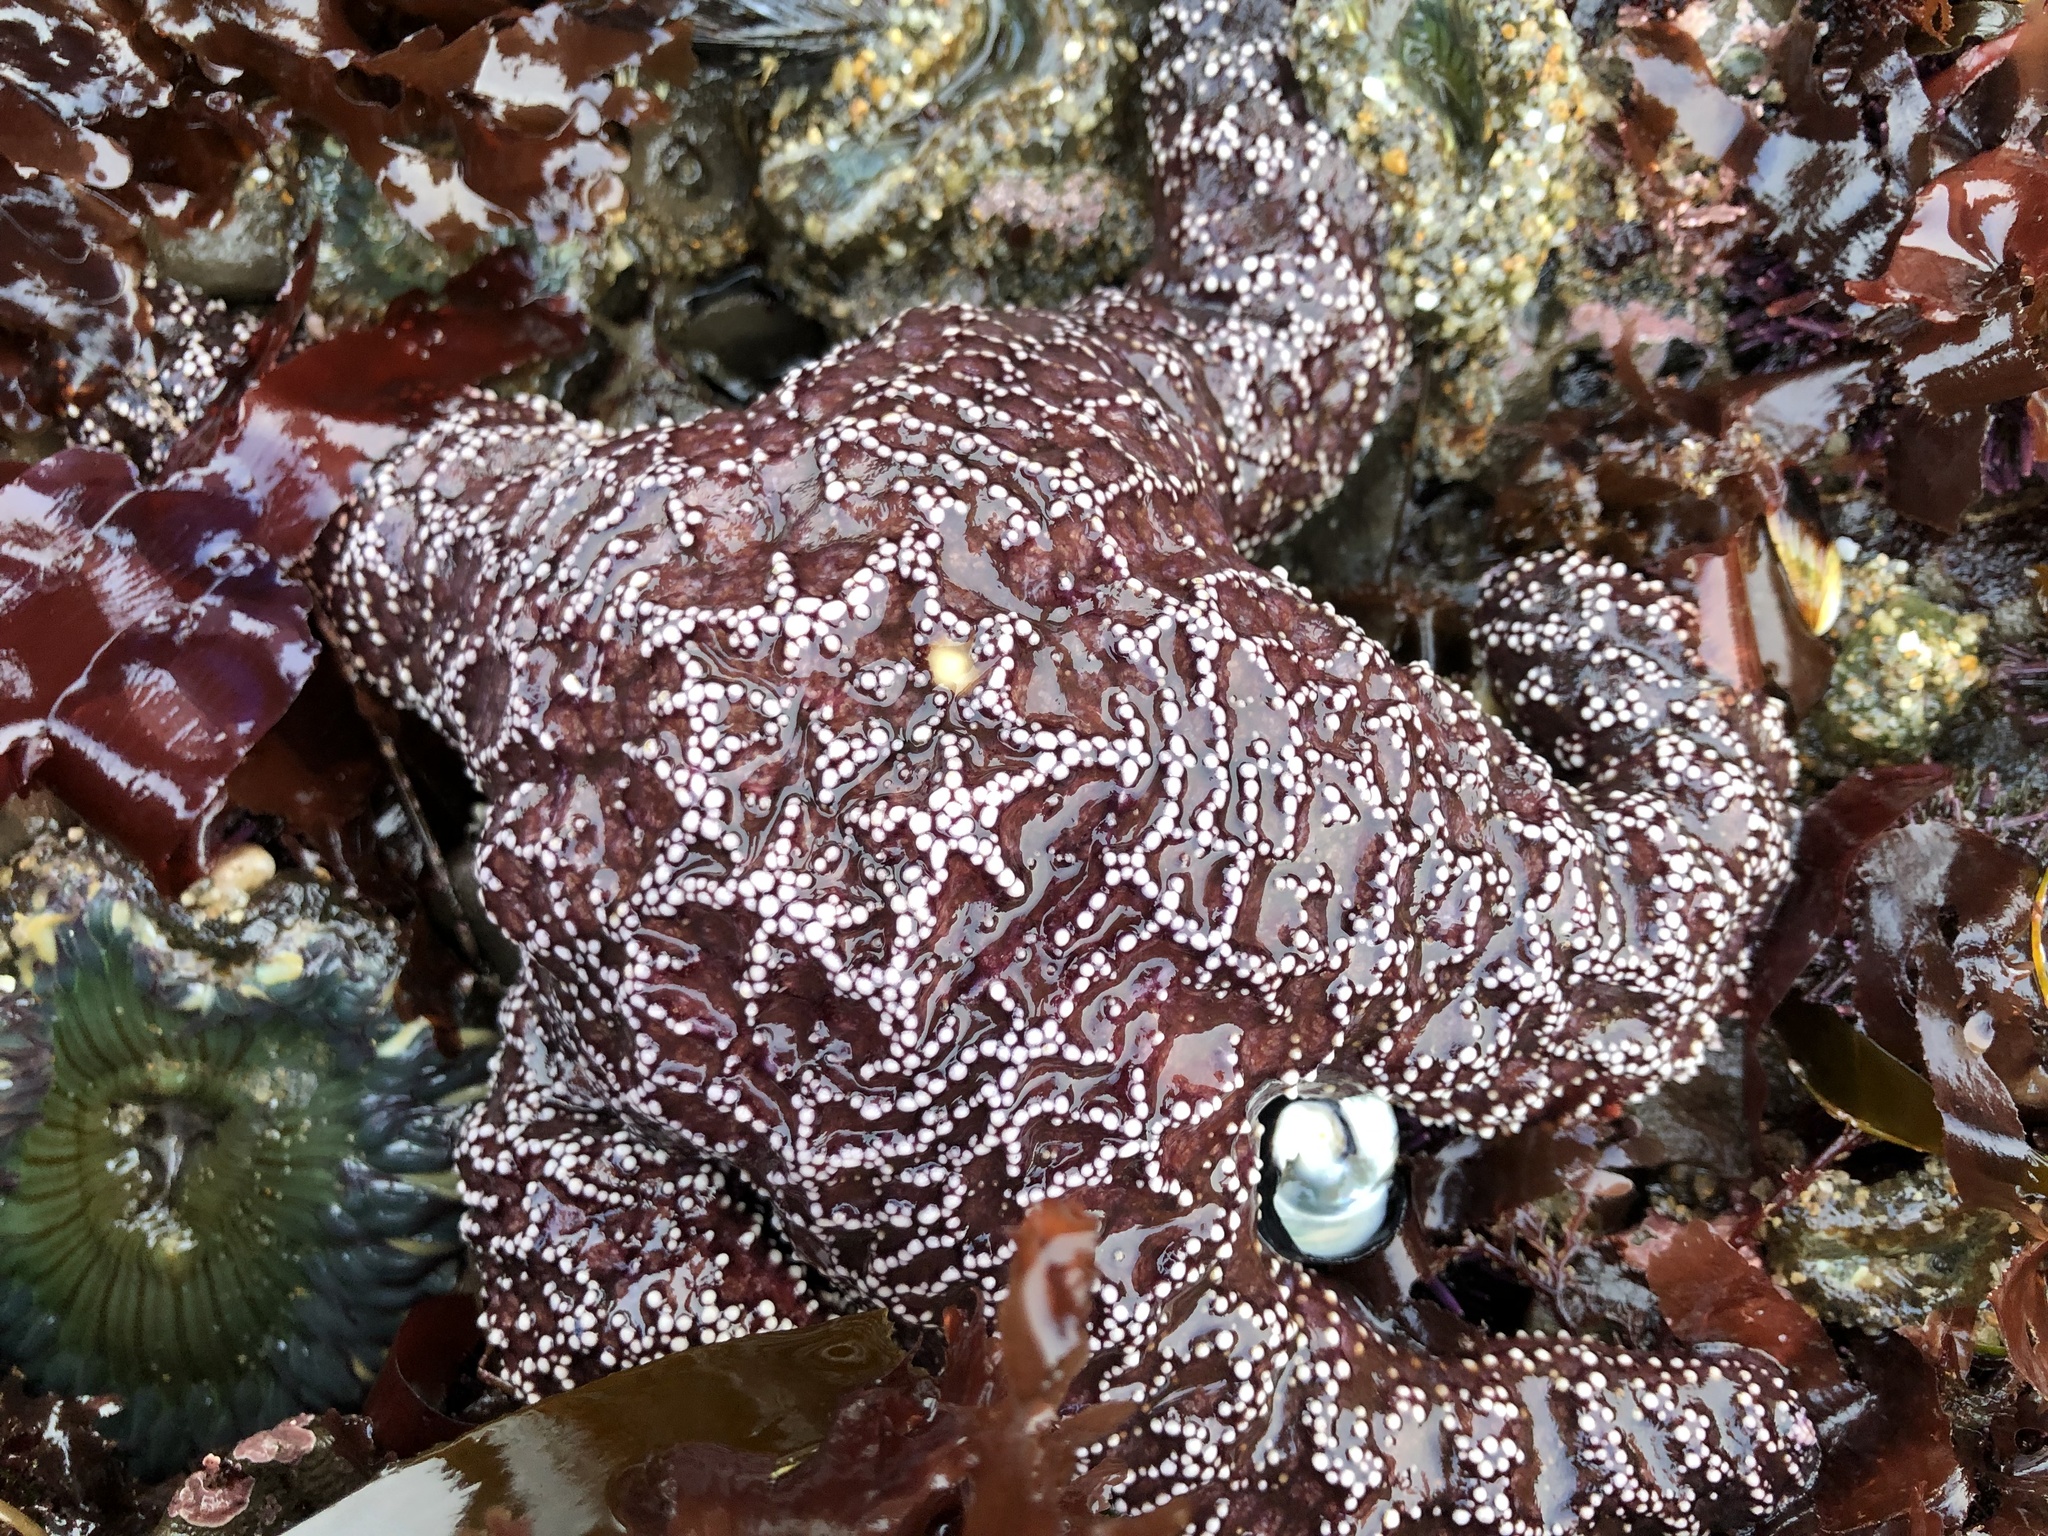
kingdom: Animalia
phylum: Echinodermata
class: Asteroidea
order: Forcipulatida
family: Asteriidae
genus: Pisaster
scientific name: Pisaster ochraceus
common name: Ochre stars
